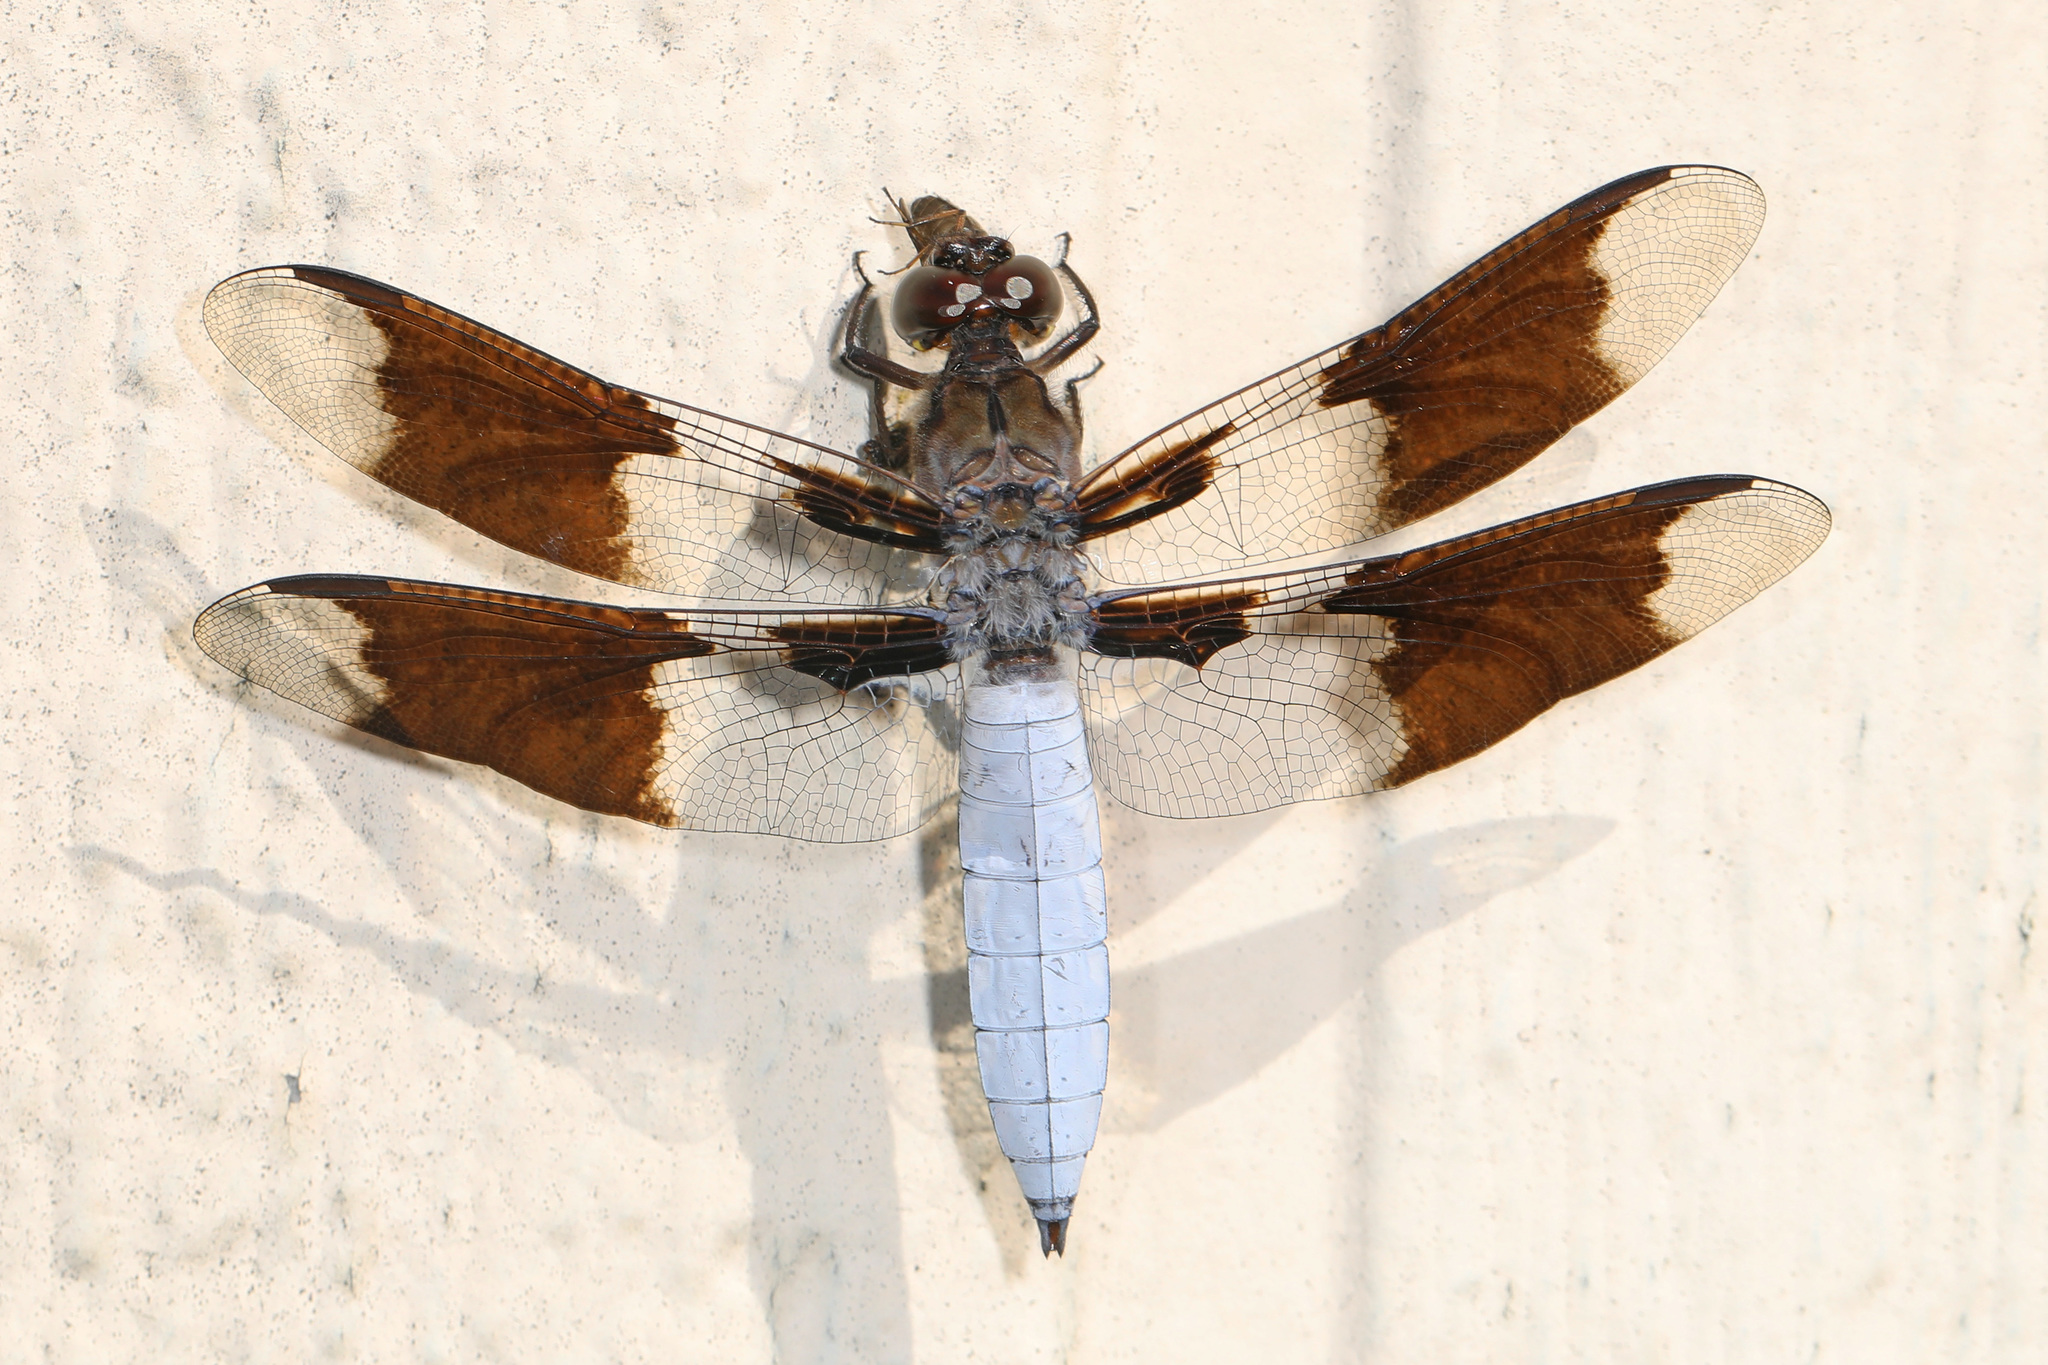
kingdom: Animalia
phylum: Arthropoda
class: Insecta
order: Odonata
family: Libellulidae
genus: Plathemis
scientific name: Plathemis lydia
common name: Common whitetail
